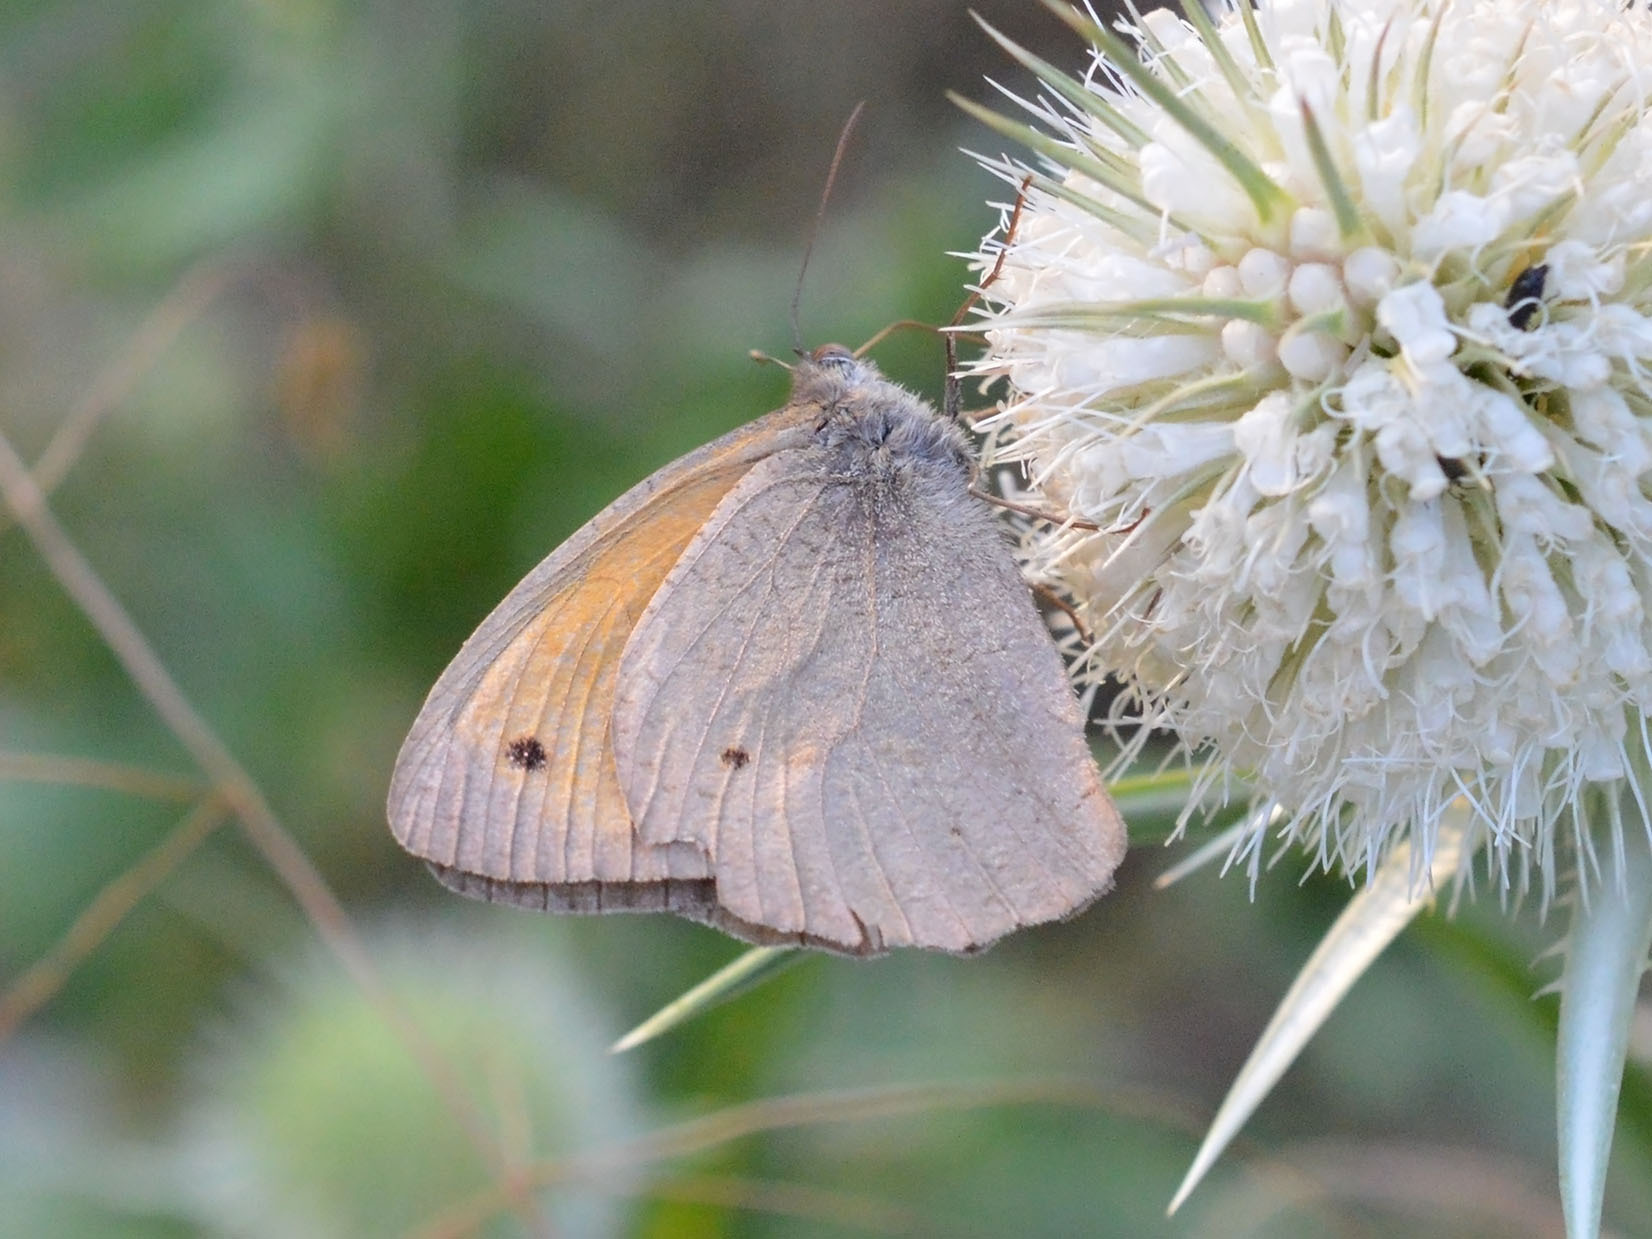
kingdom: Animalia
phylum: Arthropoda
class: Insecta
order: Lepidoptera
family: Nymphalidae
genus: Maniola
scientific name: Maniola jurtina
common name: Meadow brown
